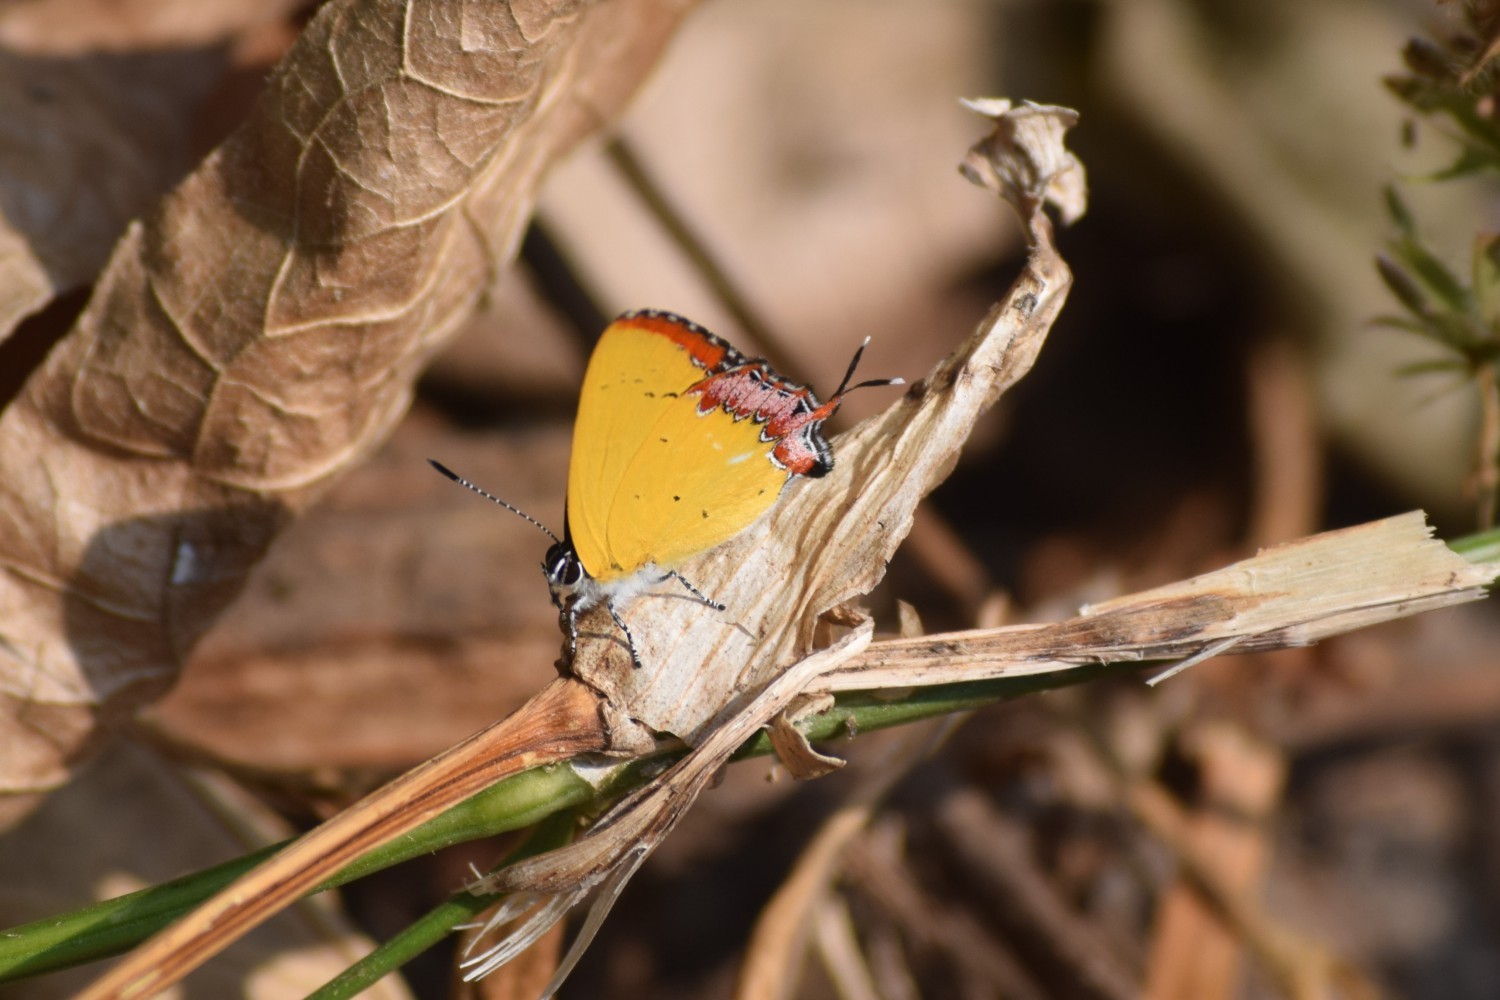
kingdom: Animalia
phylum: Arthropoda
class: Insecta
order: Lepidoptera
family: Lycaenidae
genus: Heliophorus
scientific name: Heliophorus epicles
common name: Purple sapphire
